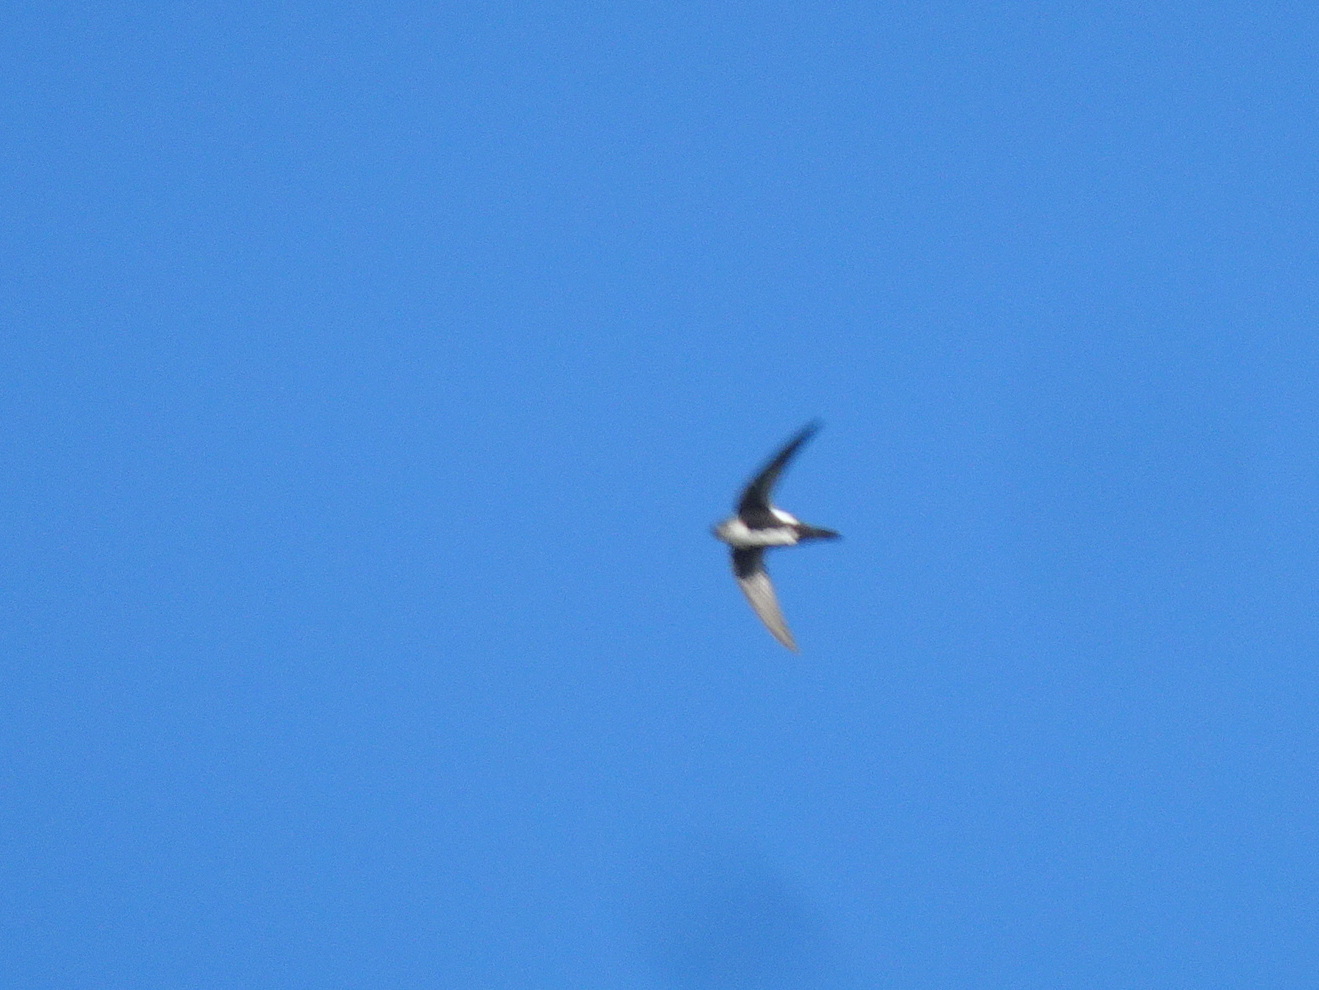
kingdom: Animalia
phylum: Chordata
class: Aves
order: Apodiformes
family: Apodidae
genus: Aeronautes
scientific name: Aeronautes saxatalis
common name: White-throated swift
